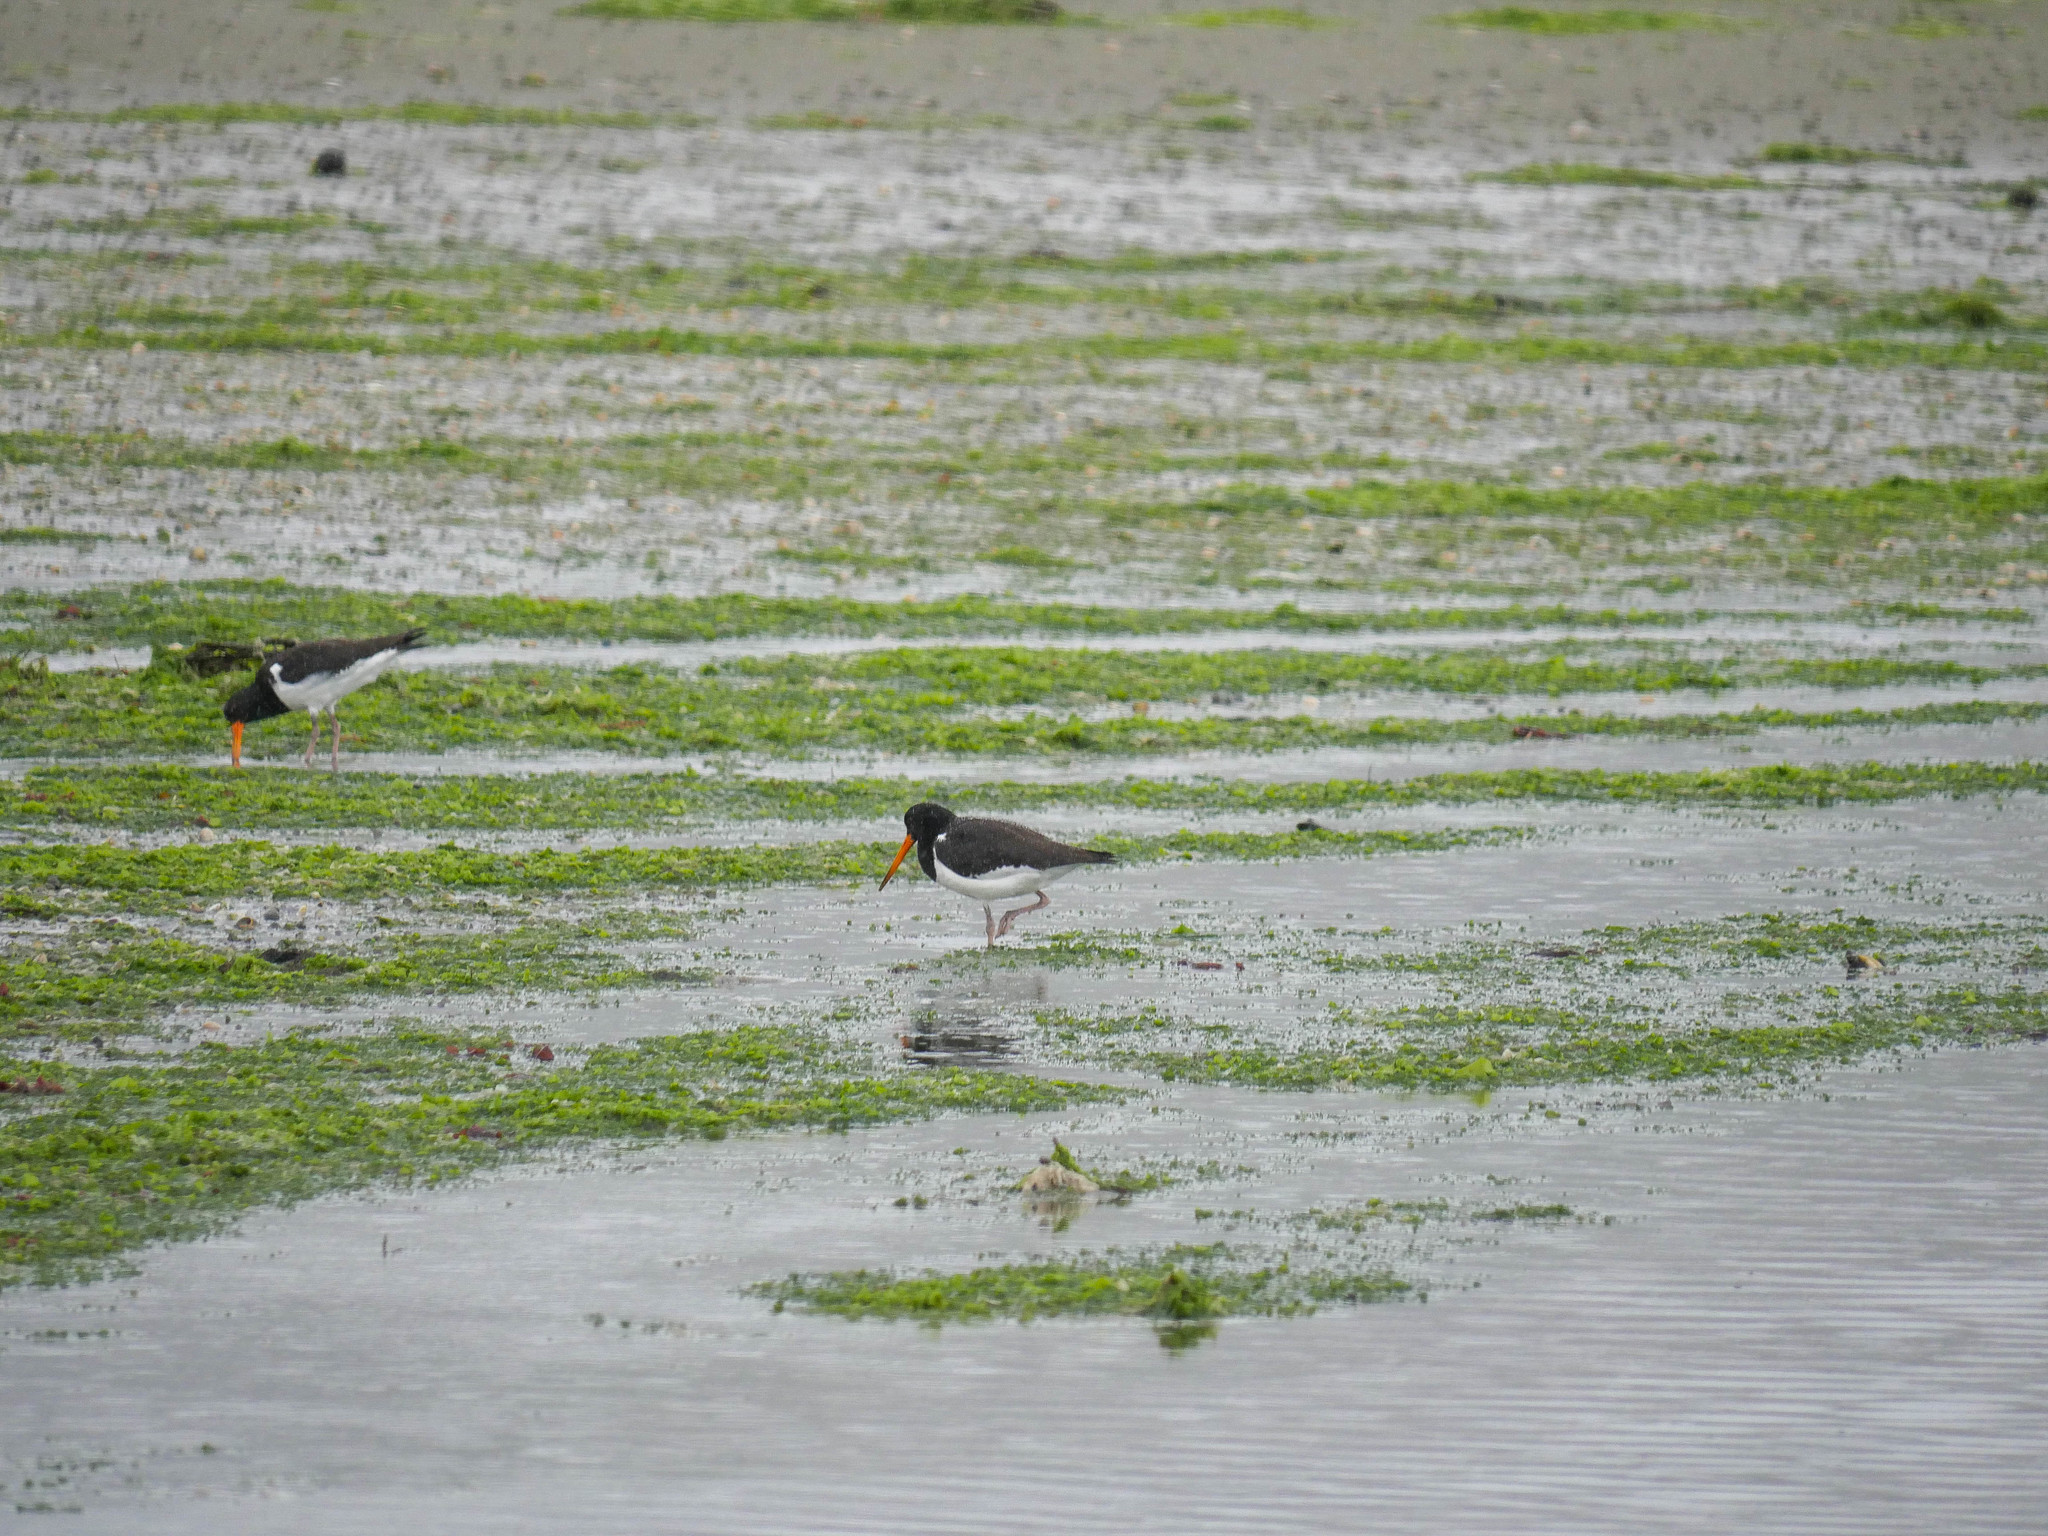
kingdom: Animalia
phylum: Chordata
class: Aves
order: Charadriiformes
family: Haematopodidae
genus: Haematopus
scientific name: Haematopus finschi
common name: South island oystercatcher
